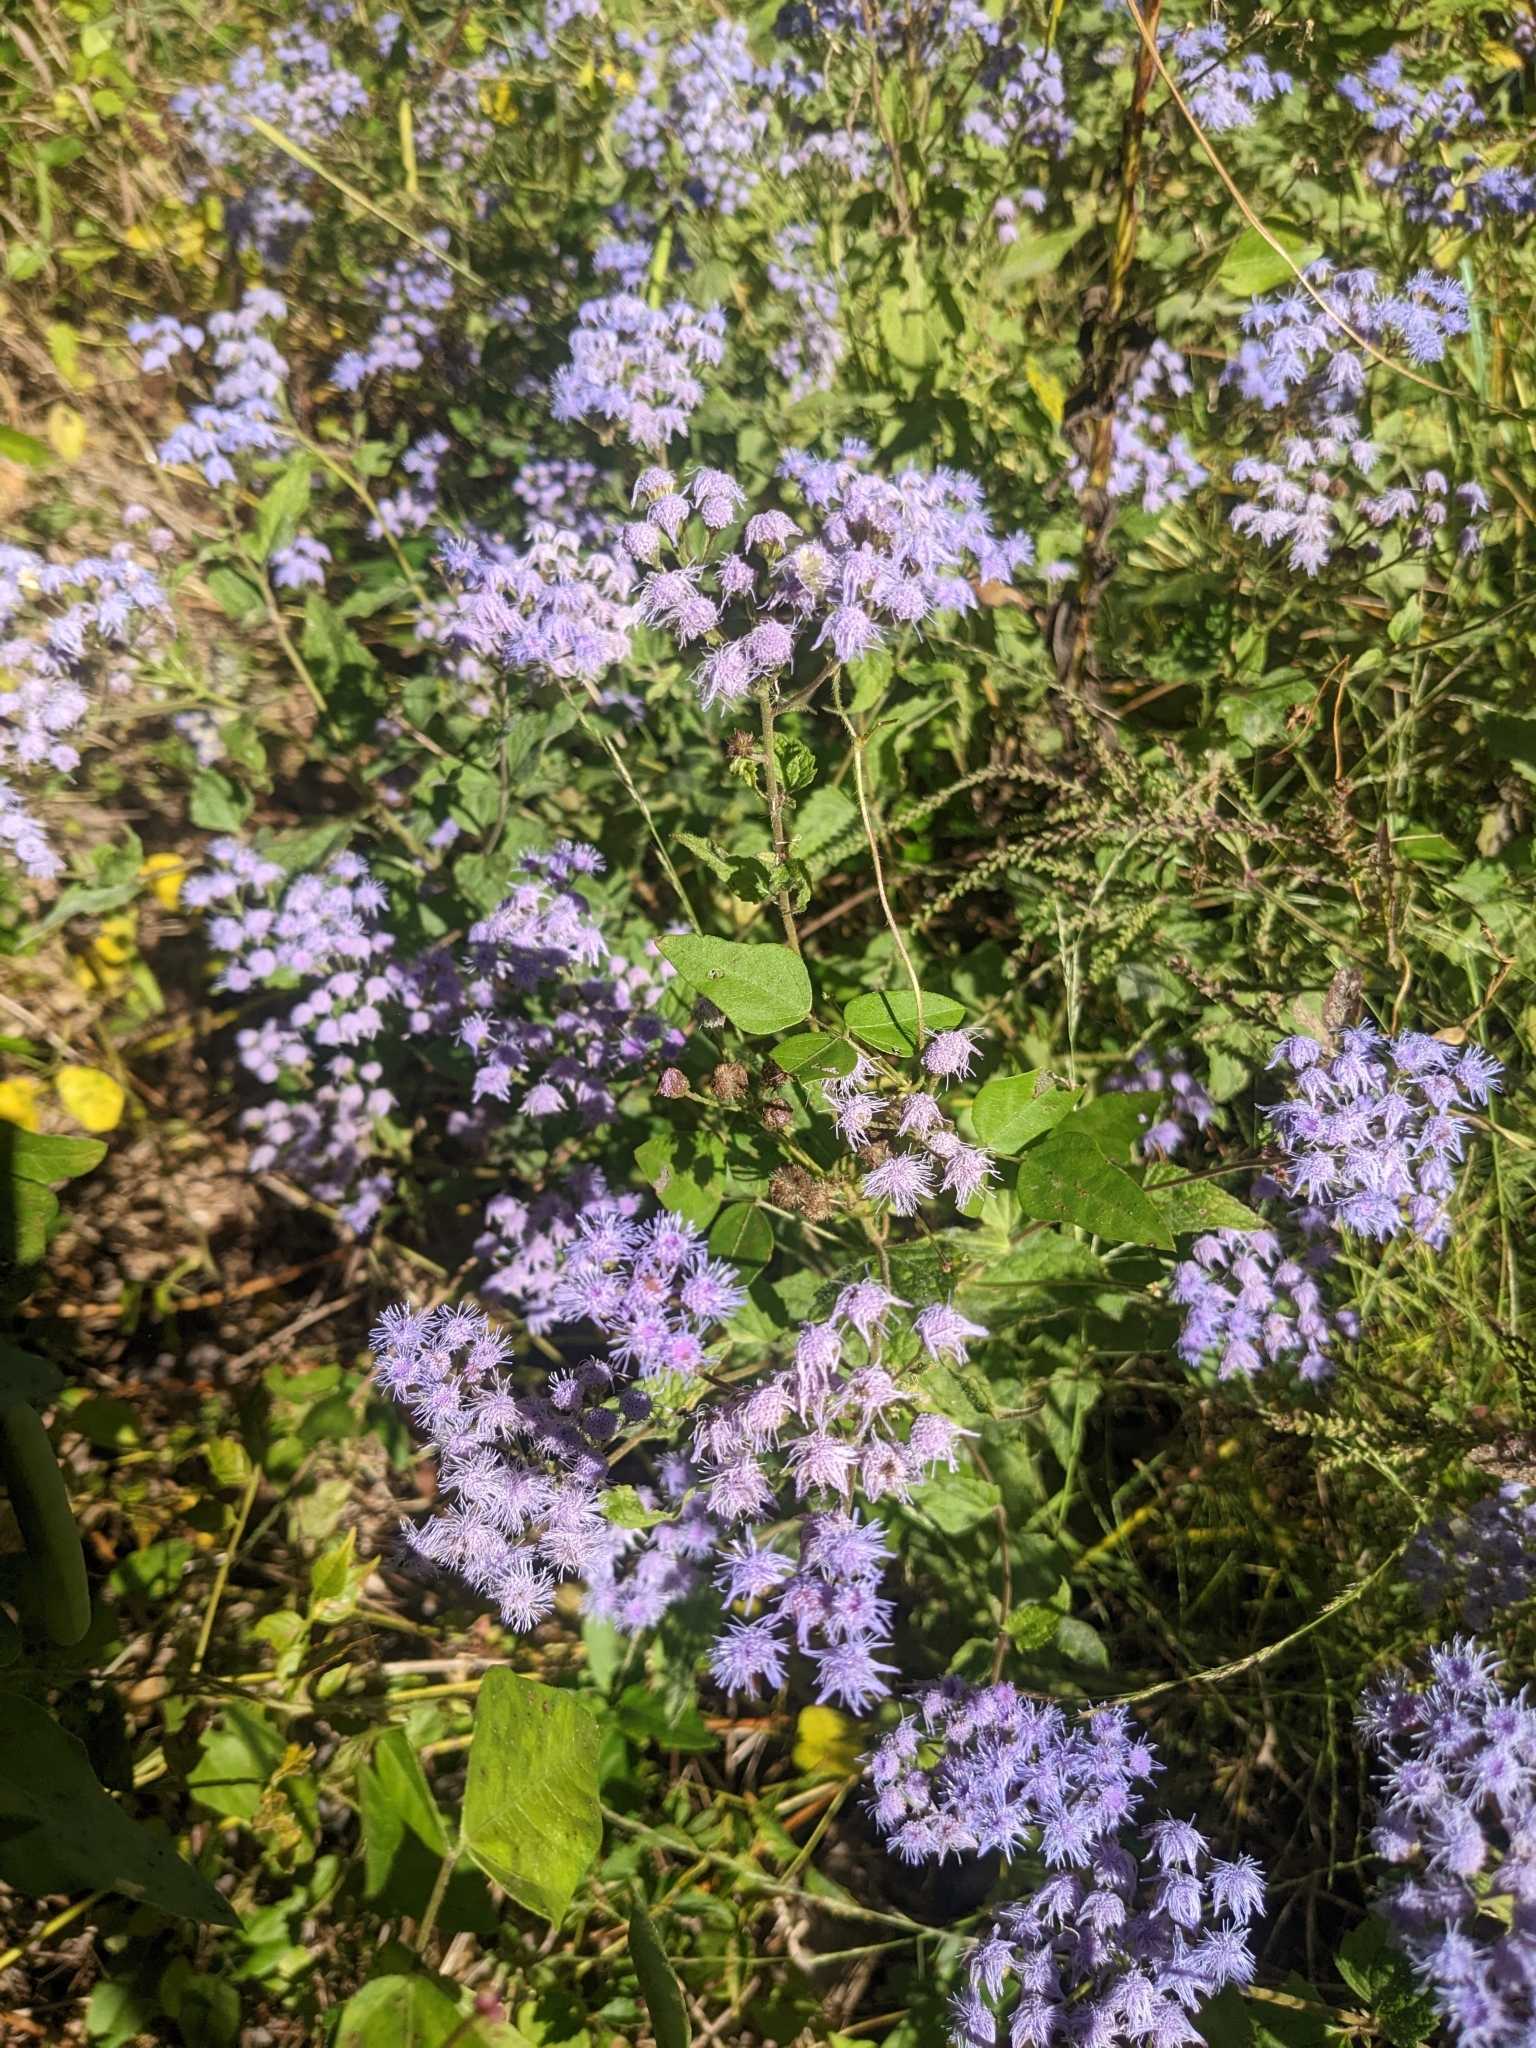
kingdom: Plantae
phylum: Tracheophyta
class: Magnoliopsida
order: Asterales
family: Asteraceae
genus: Conoclinium
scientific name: Conoclinium coelestinum
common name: Blue mistflower
